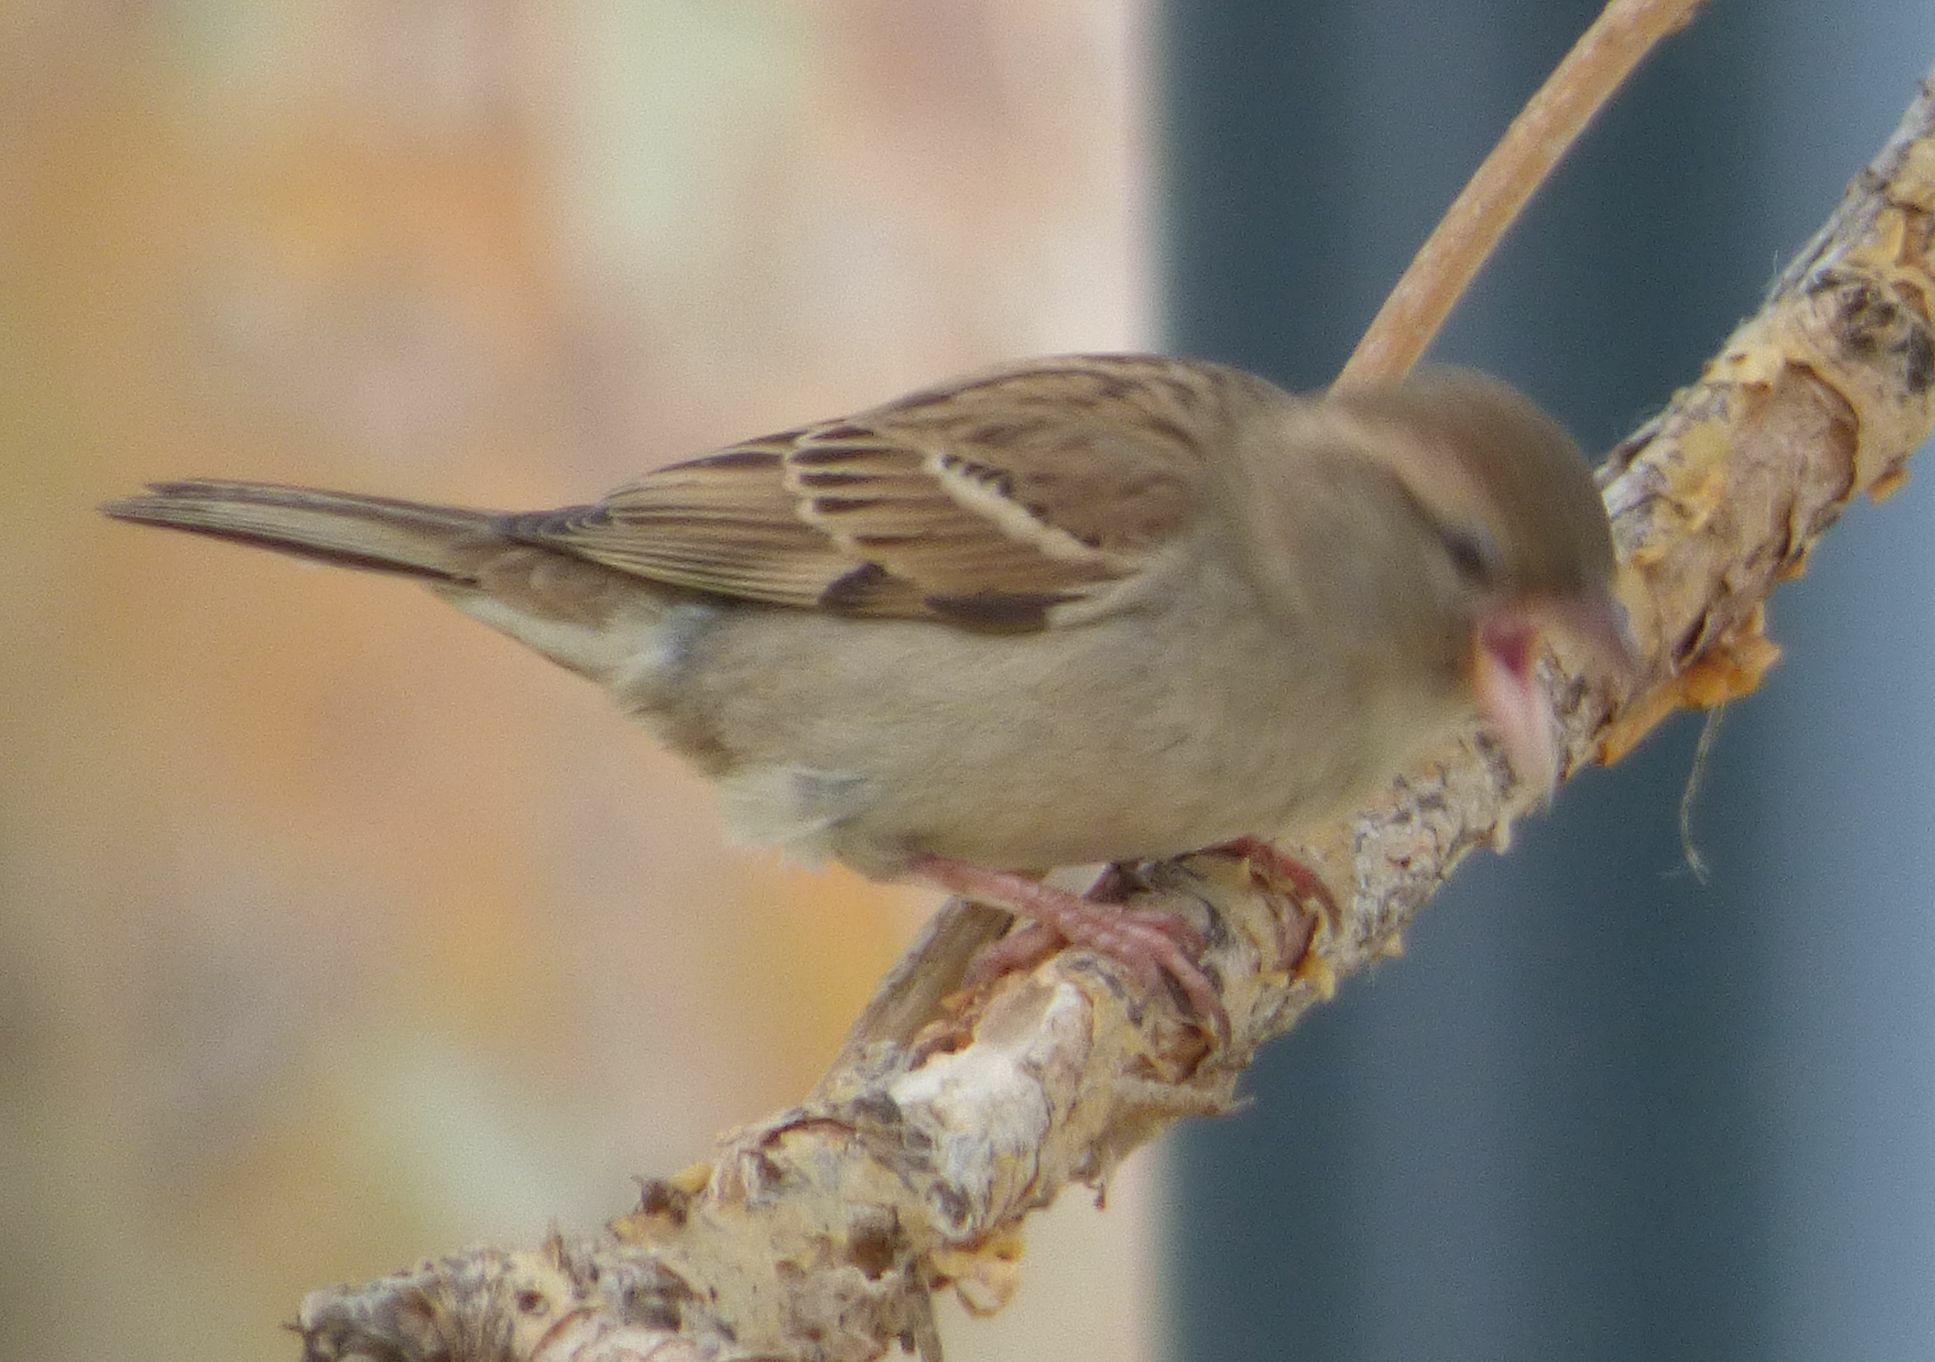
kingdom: Animalia
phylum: Chordata
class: Aves
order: Passeriformes
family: Passeridae
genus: Passer
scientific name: Passer domesticus
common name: House sparrow
